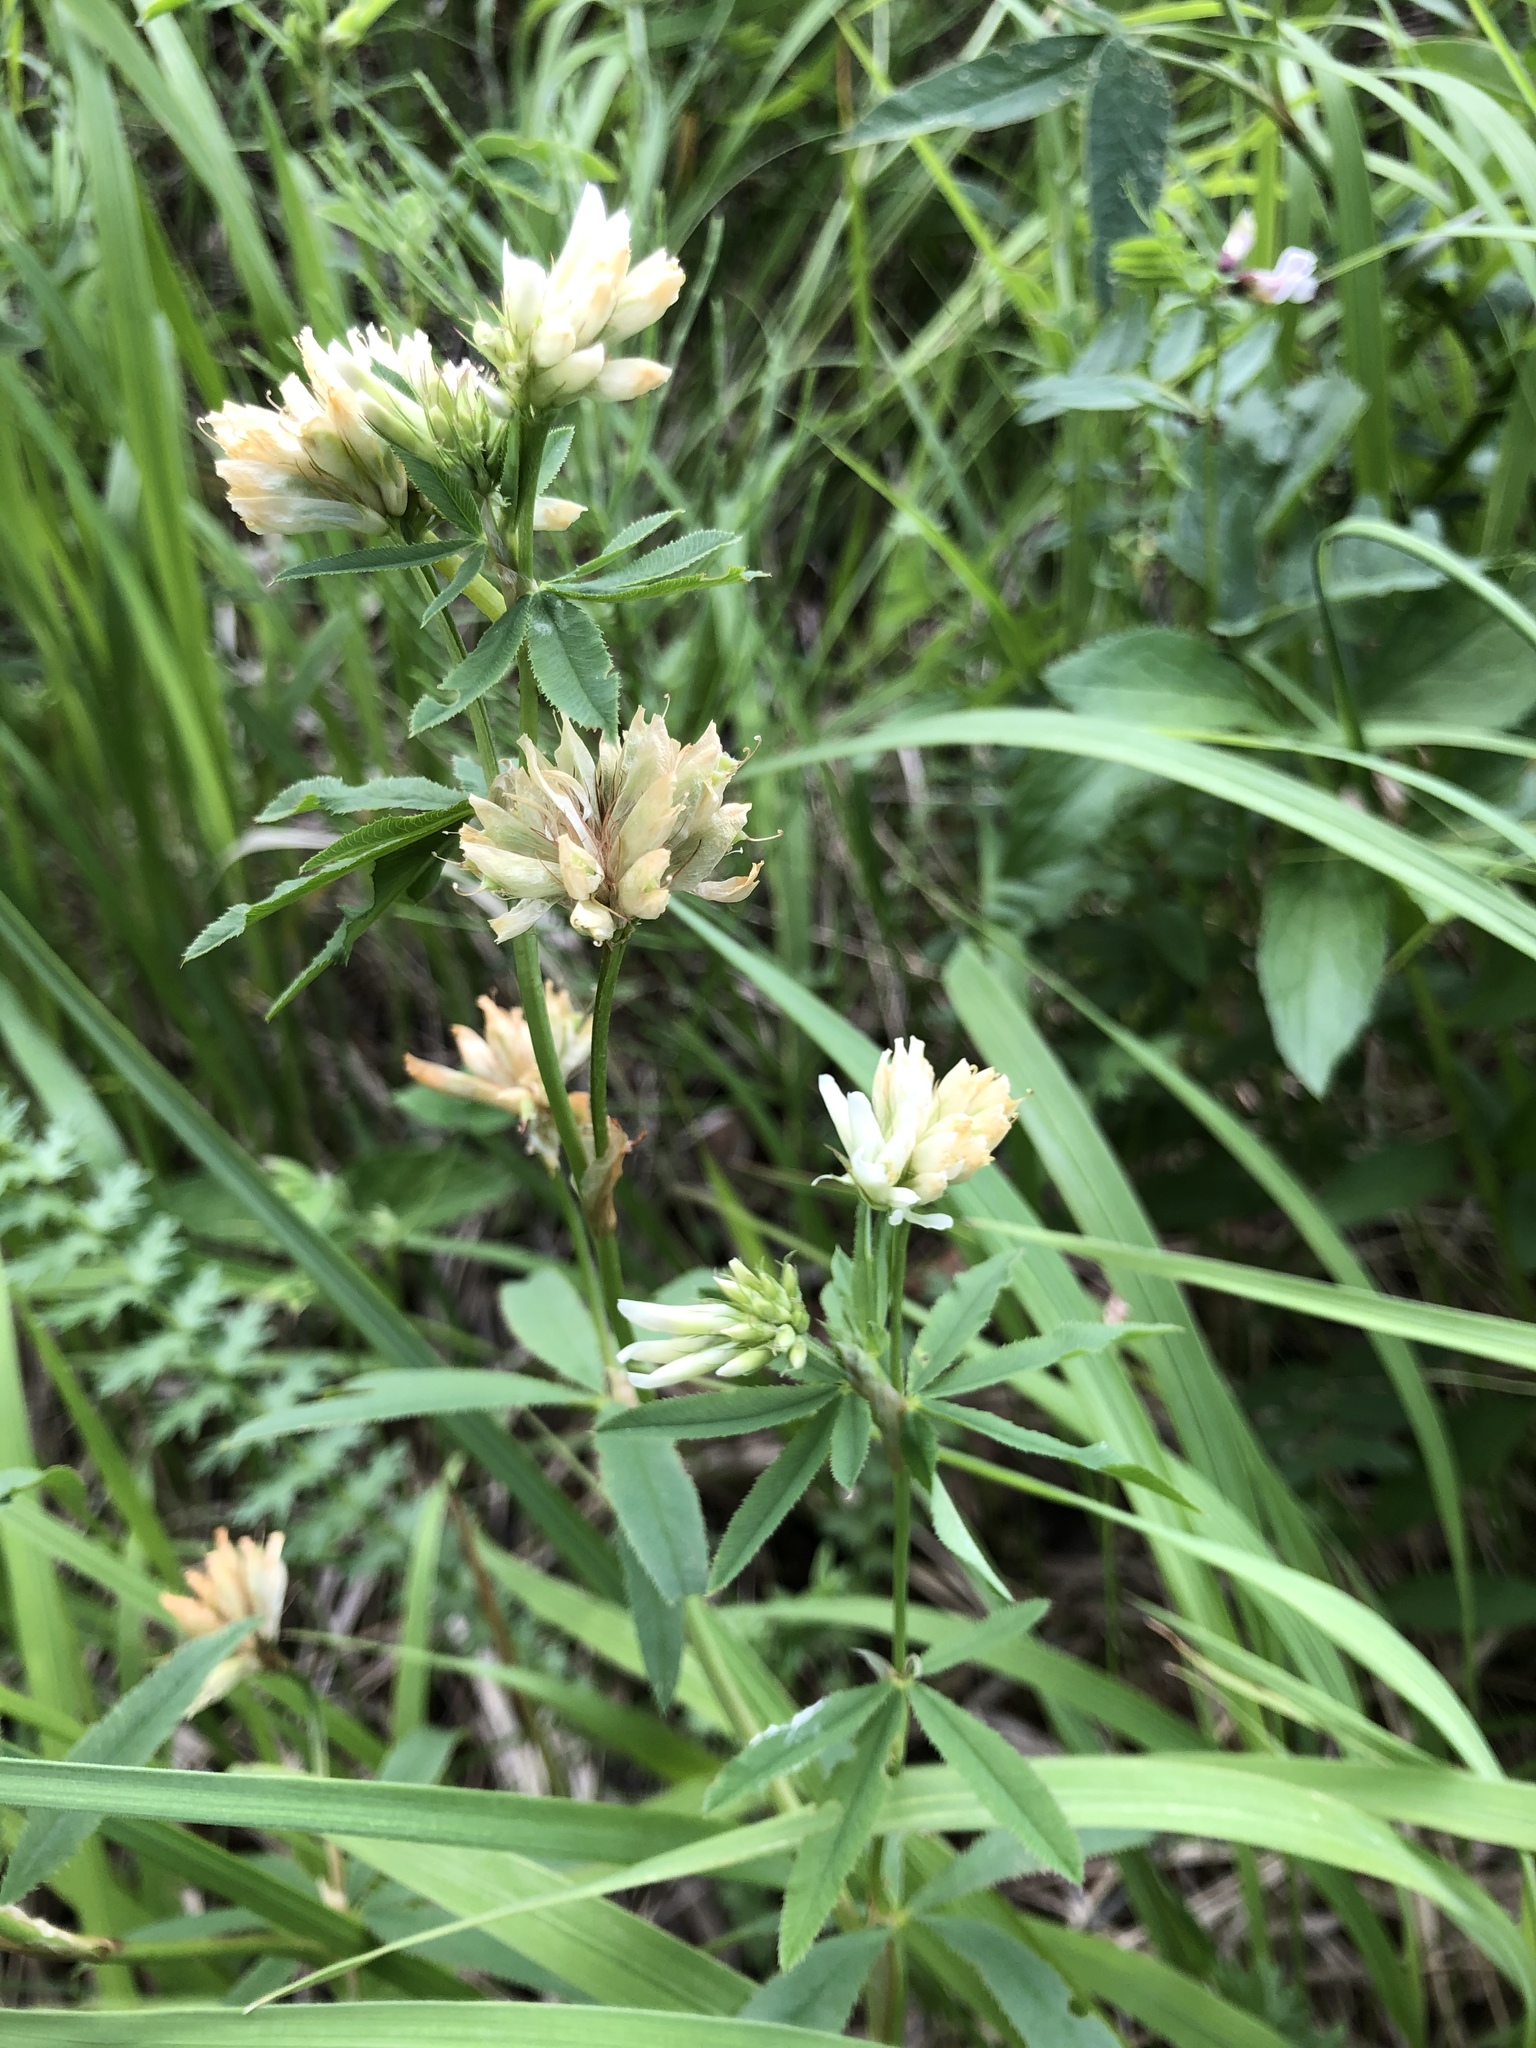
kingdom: Plantae
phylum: Tracheophyta
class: Magnoliopsida
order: Fabales
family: Fabaceae
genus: Trifolium
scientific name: Trifolium lupinaster
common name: Lupine clover
